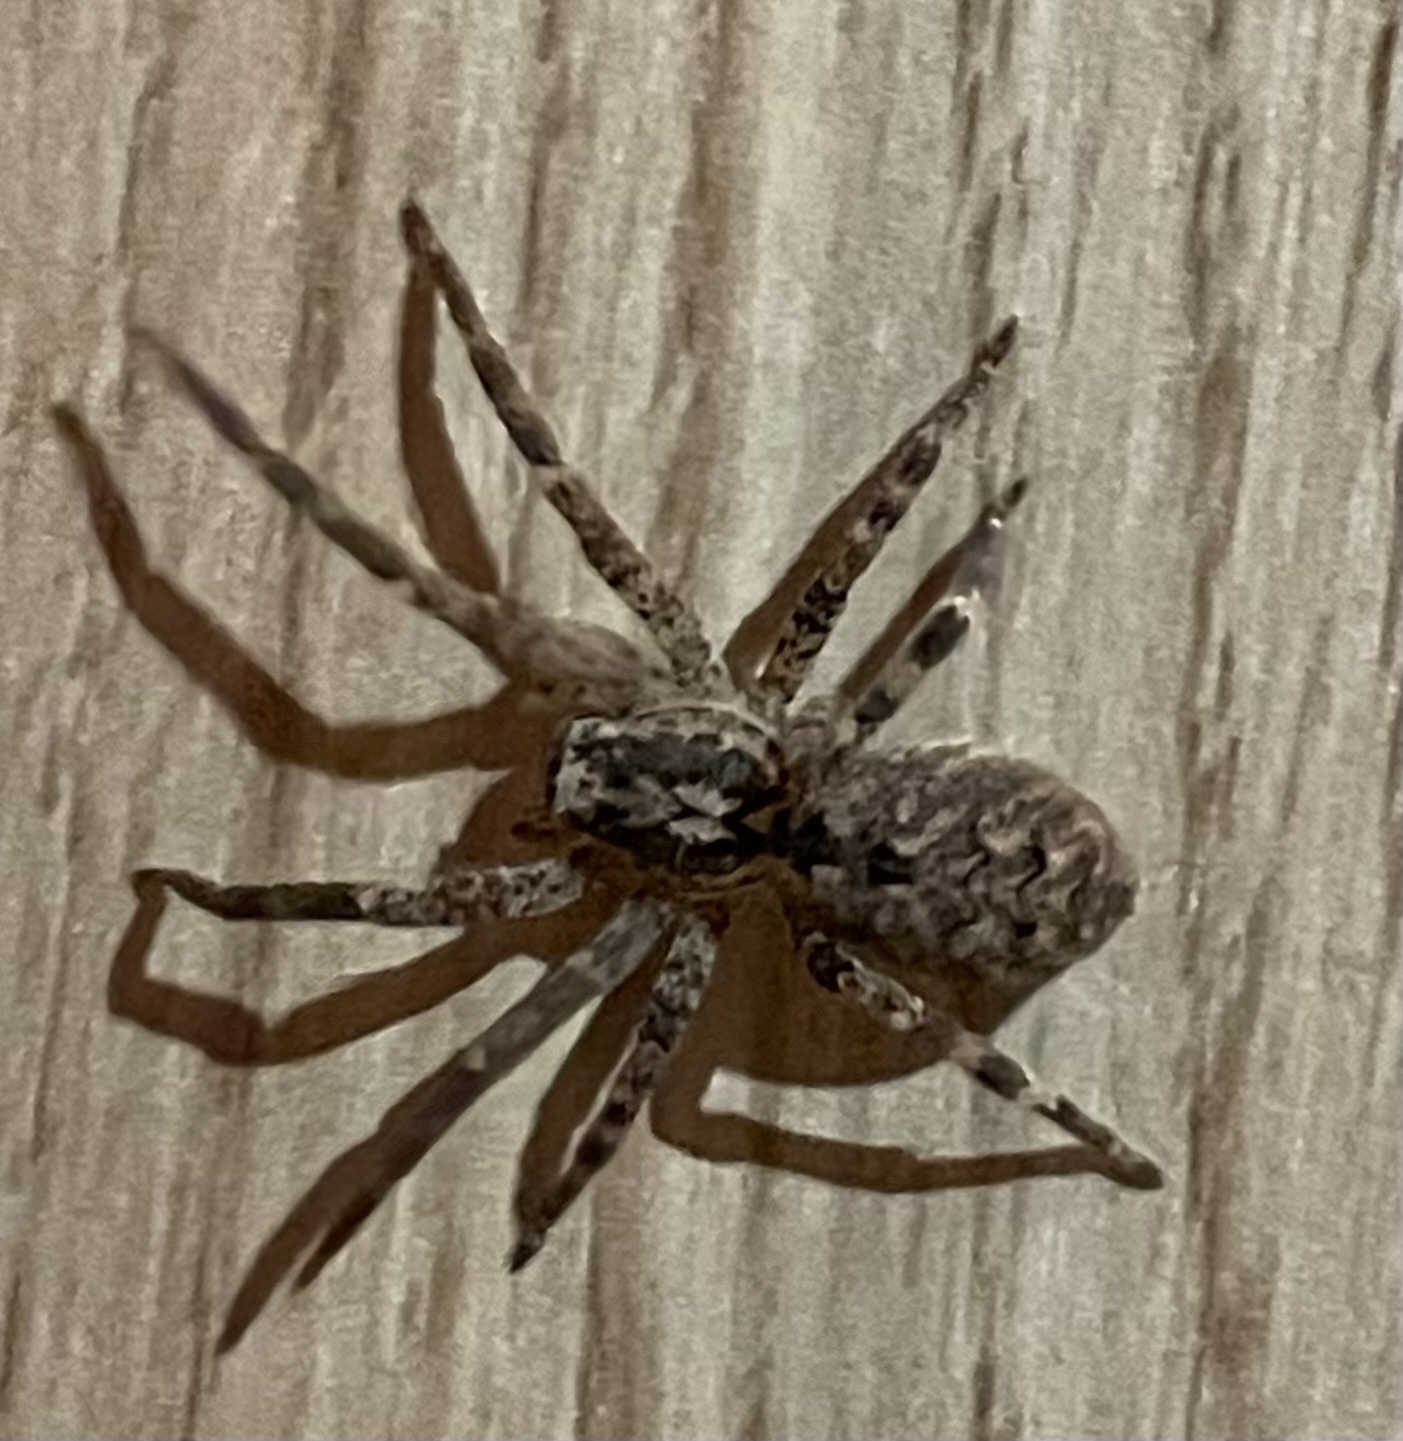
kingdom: Animalia
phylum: Arthropoda
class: Arachnida
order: Araneae
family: Zoropsidae
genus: Zoropsis
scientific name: Zoropsis spinimana
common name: Zoropsid spider
